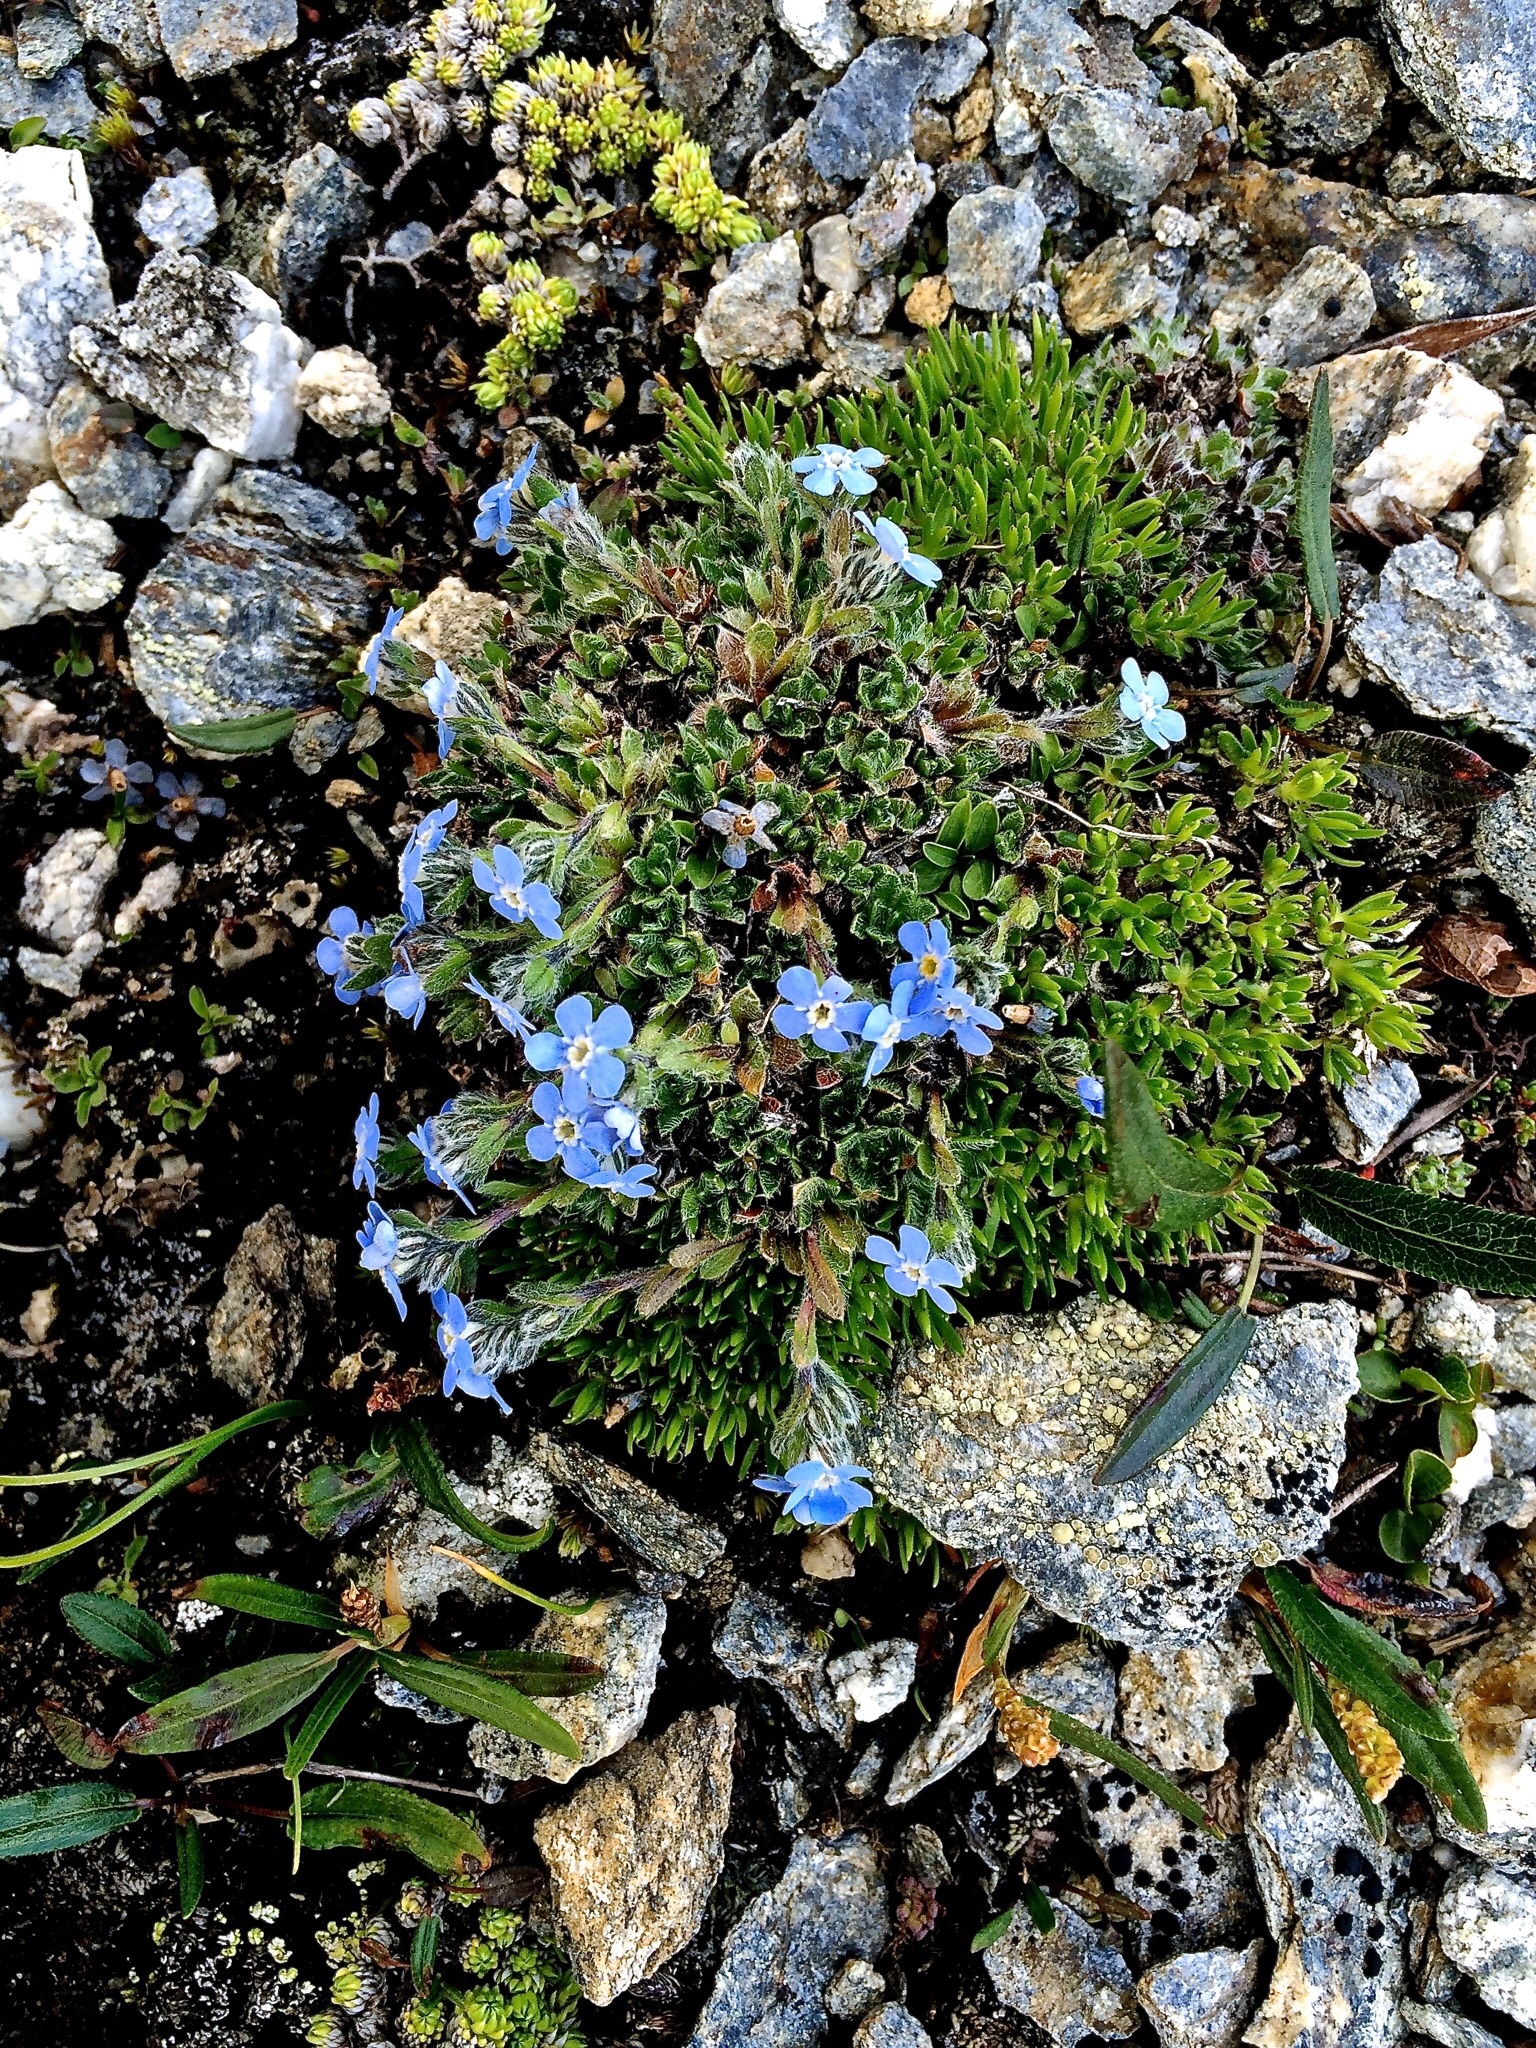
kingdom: Plantae
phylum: Tracheophyta
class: Magnoliopsida
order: Boraginales
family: Boraginaceae
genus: Eritrichium
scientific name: Eritrichium nanum
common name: King-of-the-alps
